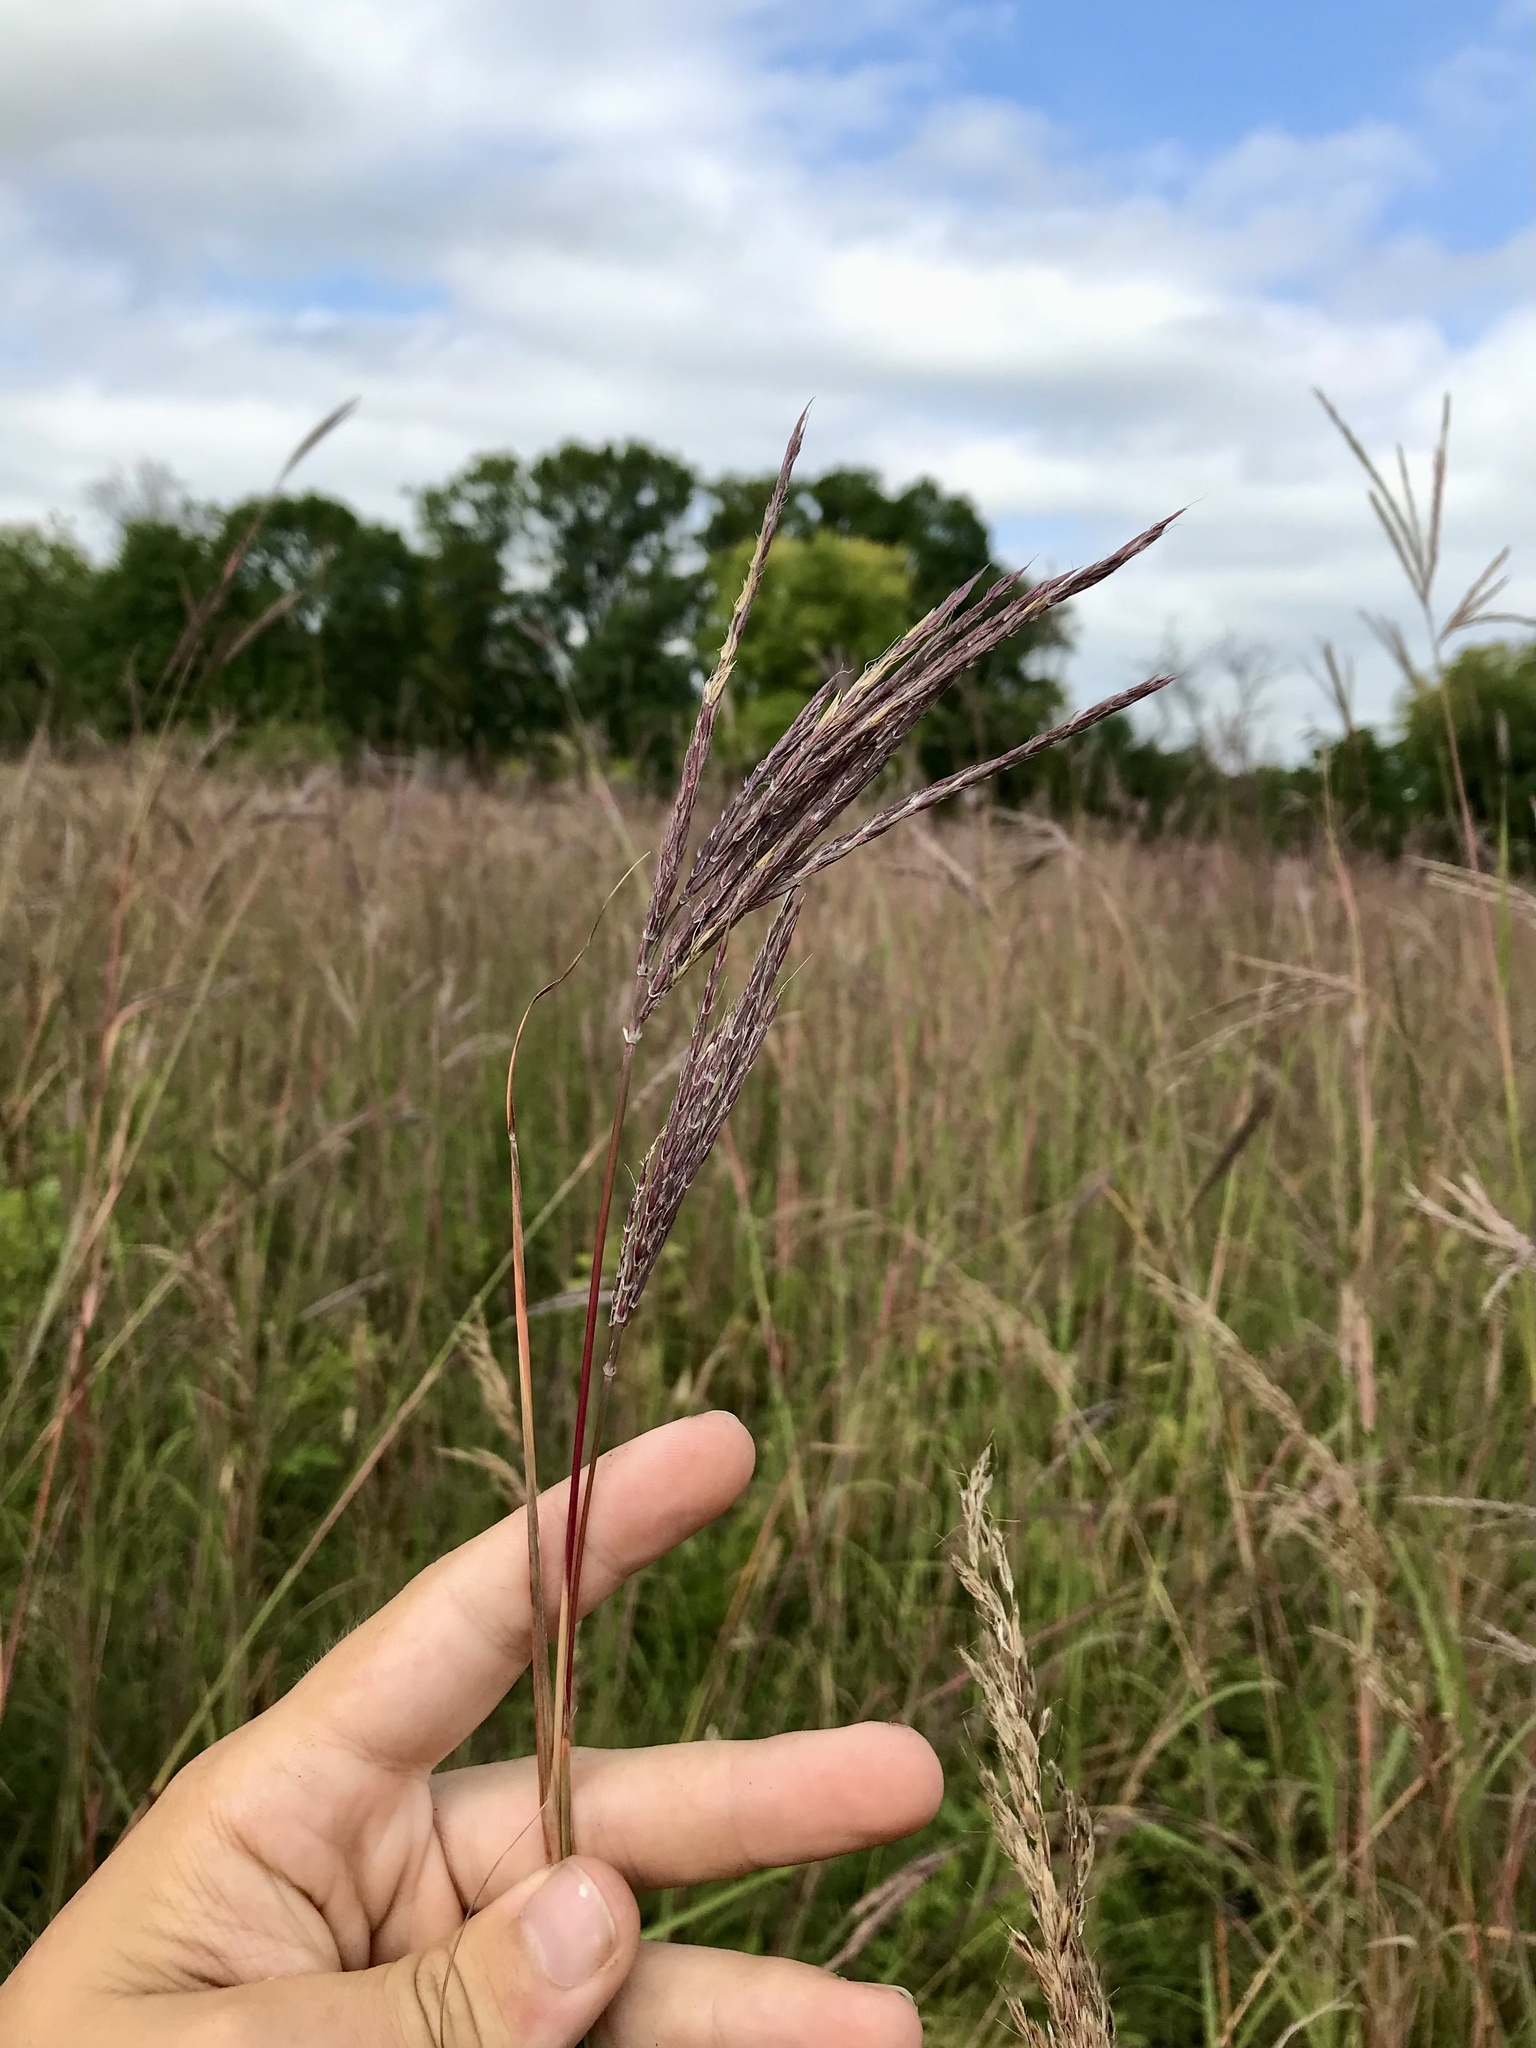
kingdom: Plantae
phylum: Tracheophyta
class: Liliopsida
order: Poales
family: Poaceae
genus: Andropogon
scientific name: Andropogon gerardi
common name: Big bluestem
